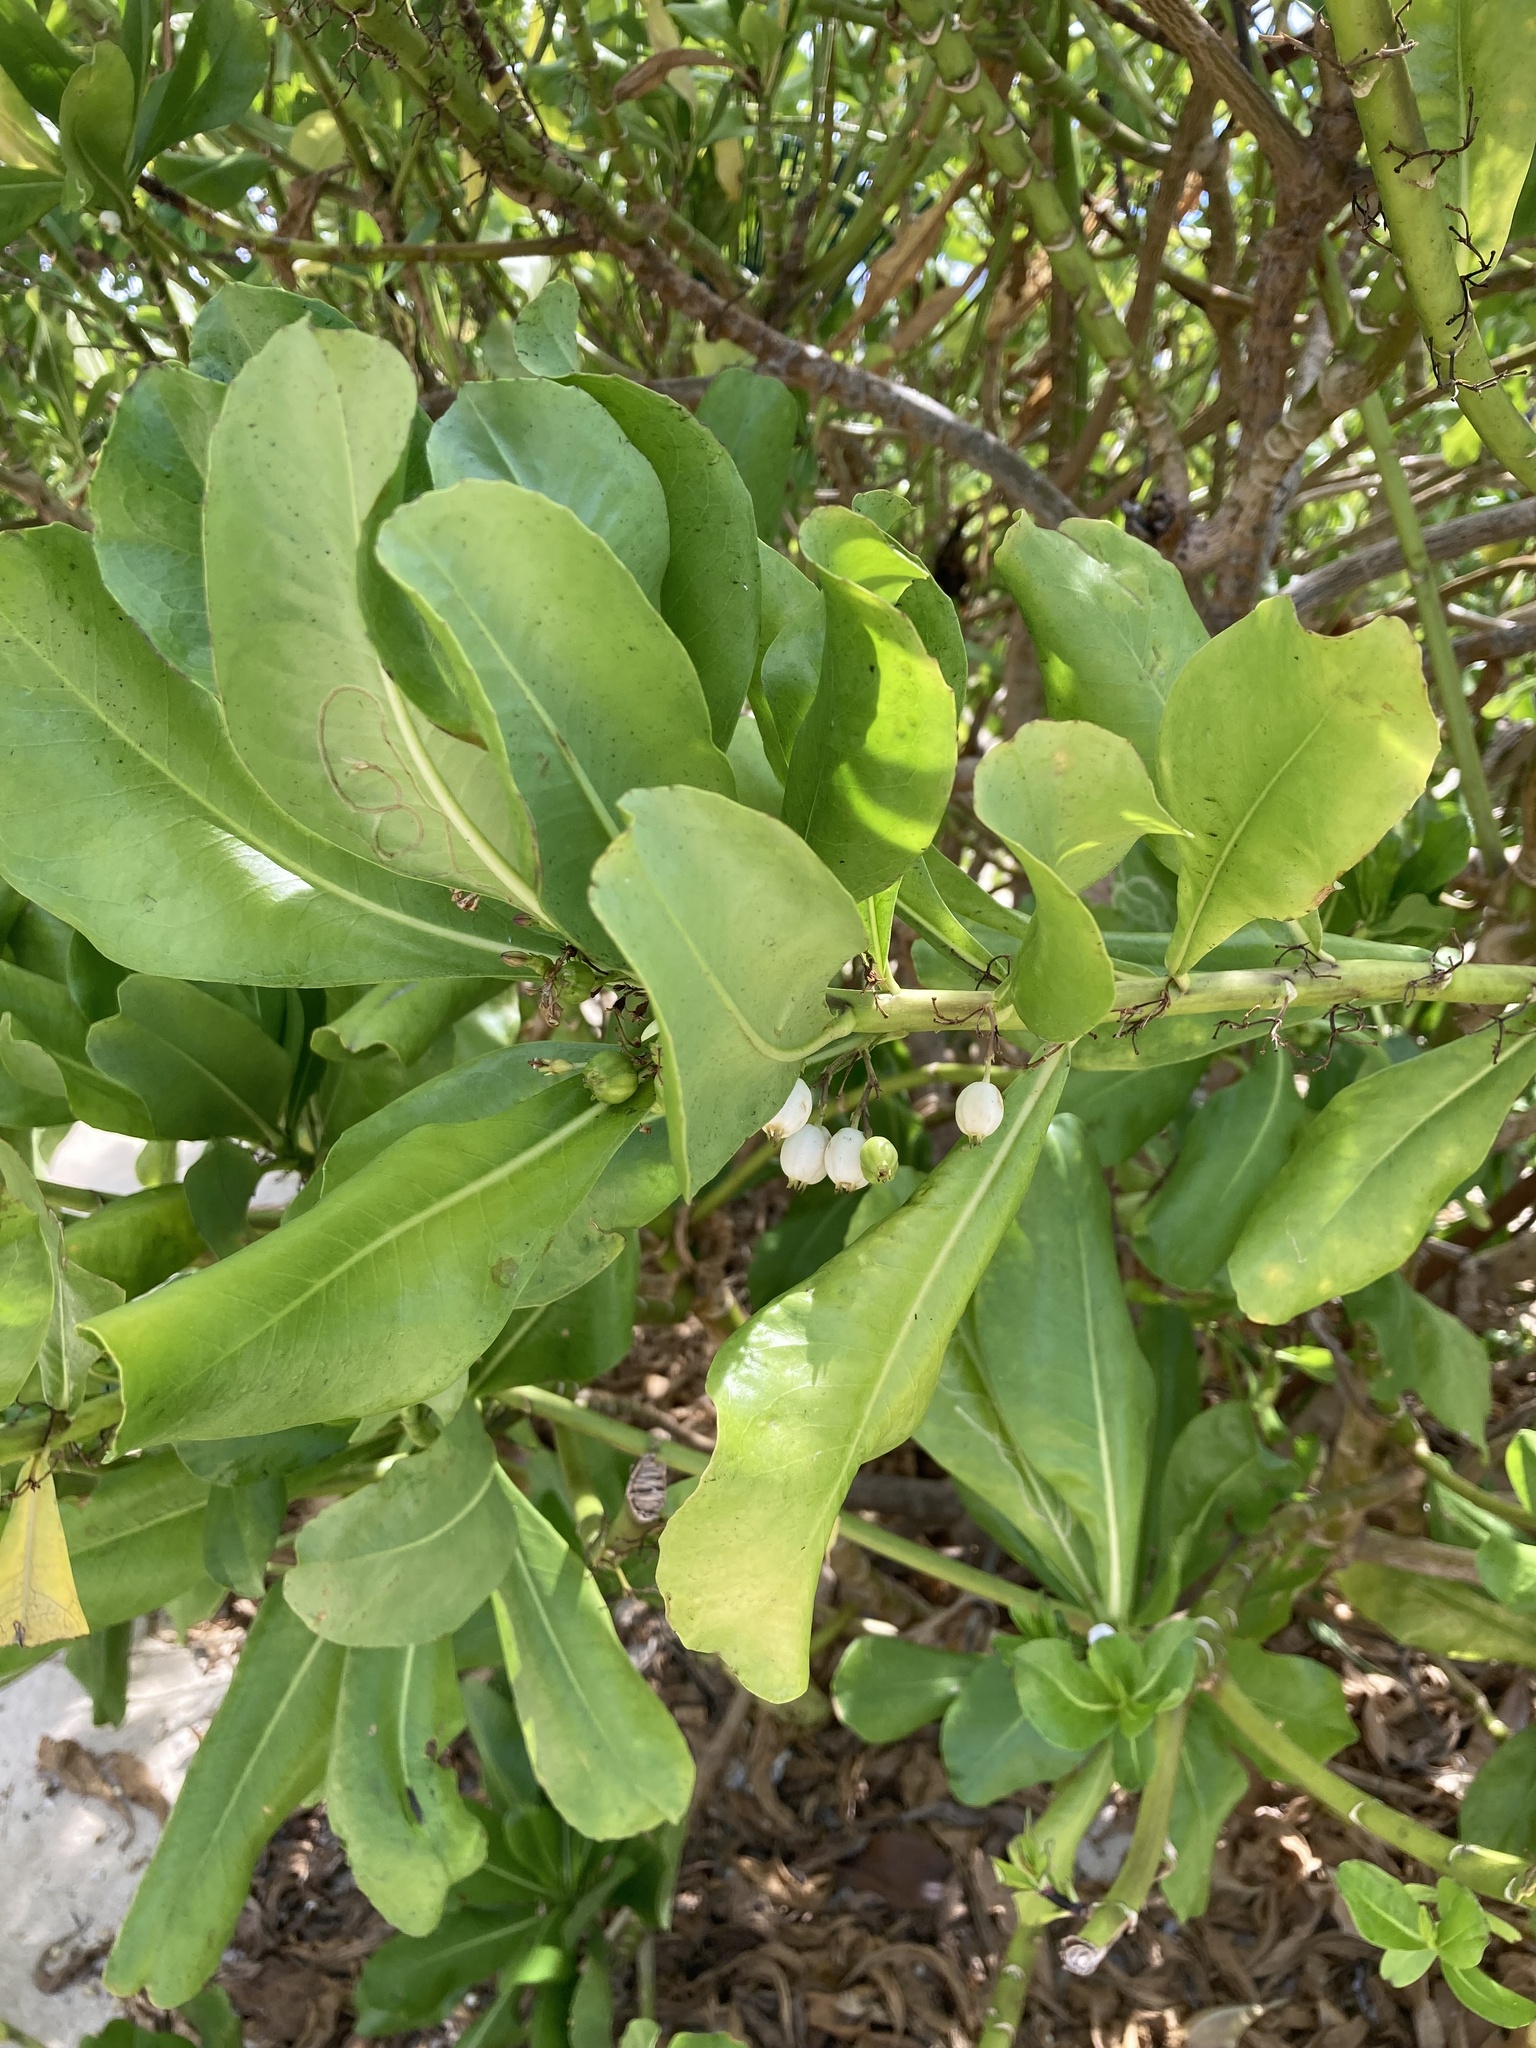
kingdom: Plantae
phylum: Tracheophyta
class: Magnoliopsida
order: Asterales
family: Goodeniaceae
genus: Scaevola
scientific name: Scaevola taccada
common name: Sea lettucetree
